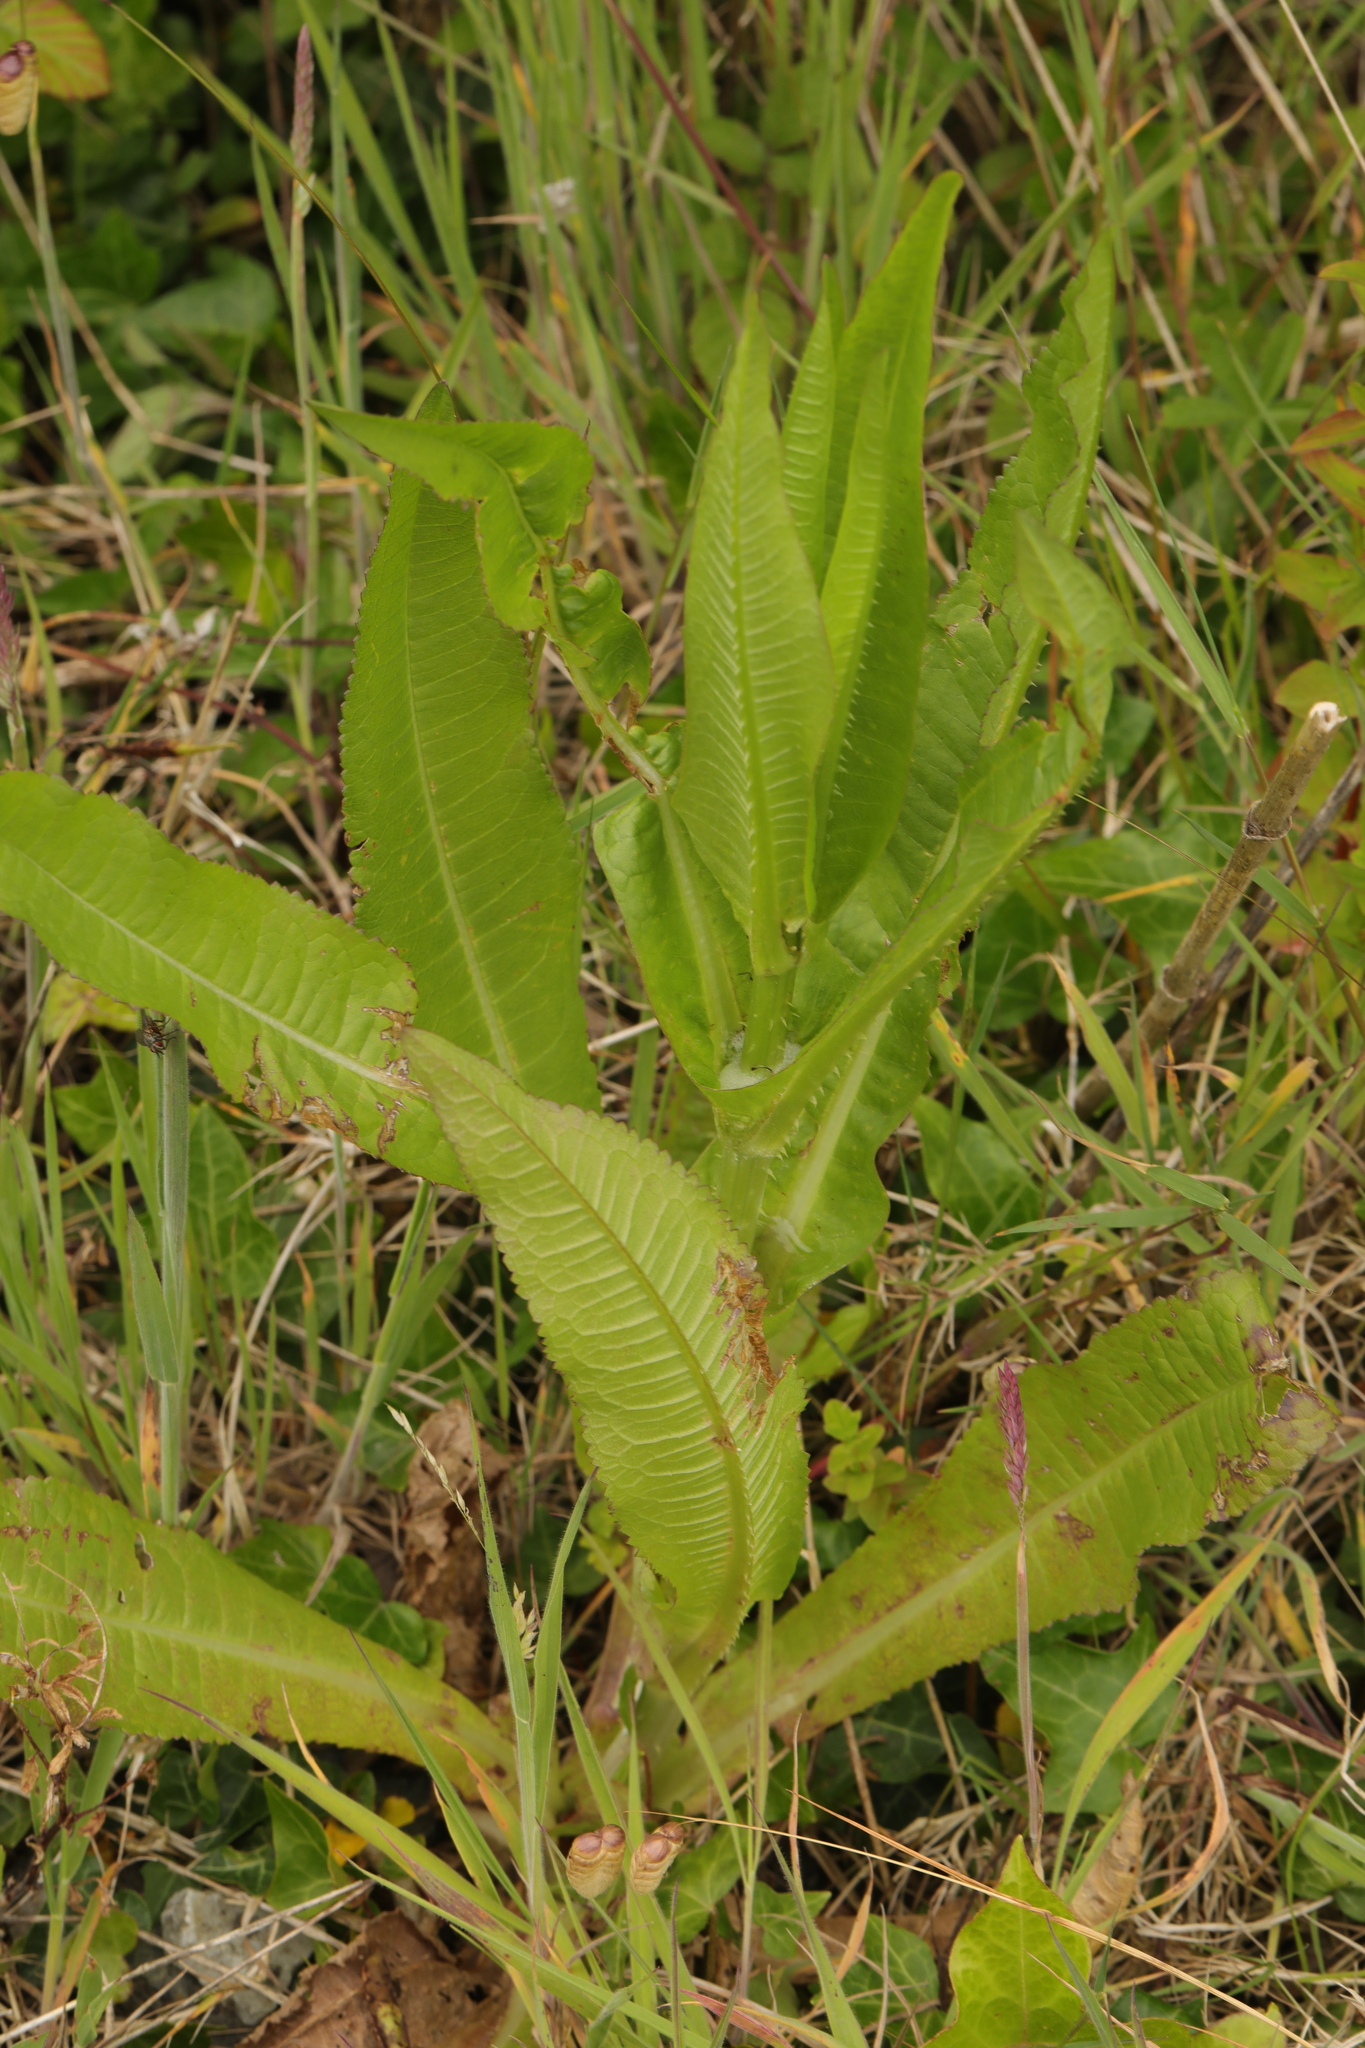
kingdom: Plantae
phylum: Tracheophyta
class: Magnoliopsida
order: Dipsacales
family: Caprifoliaceae
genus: Dipsacus
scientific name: Dipsacus fullonum
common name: Teasel
